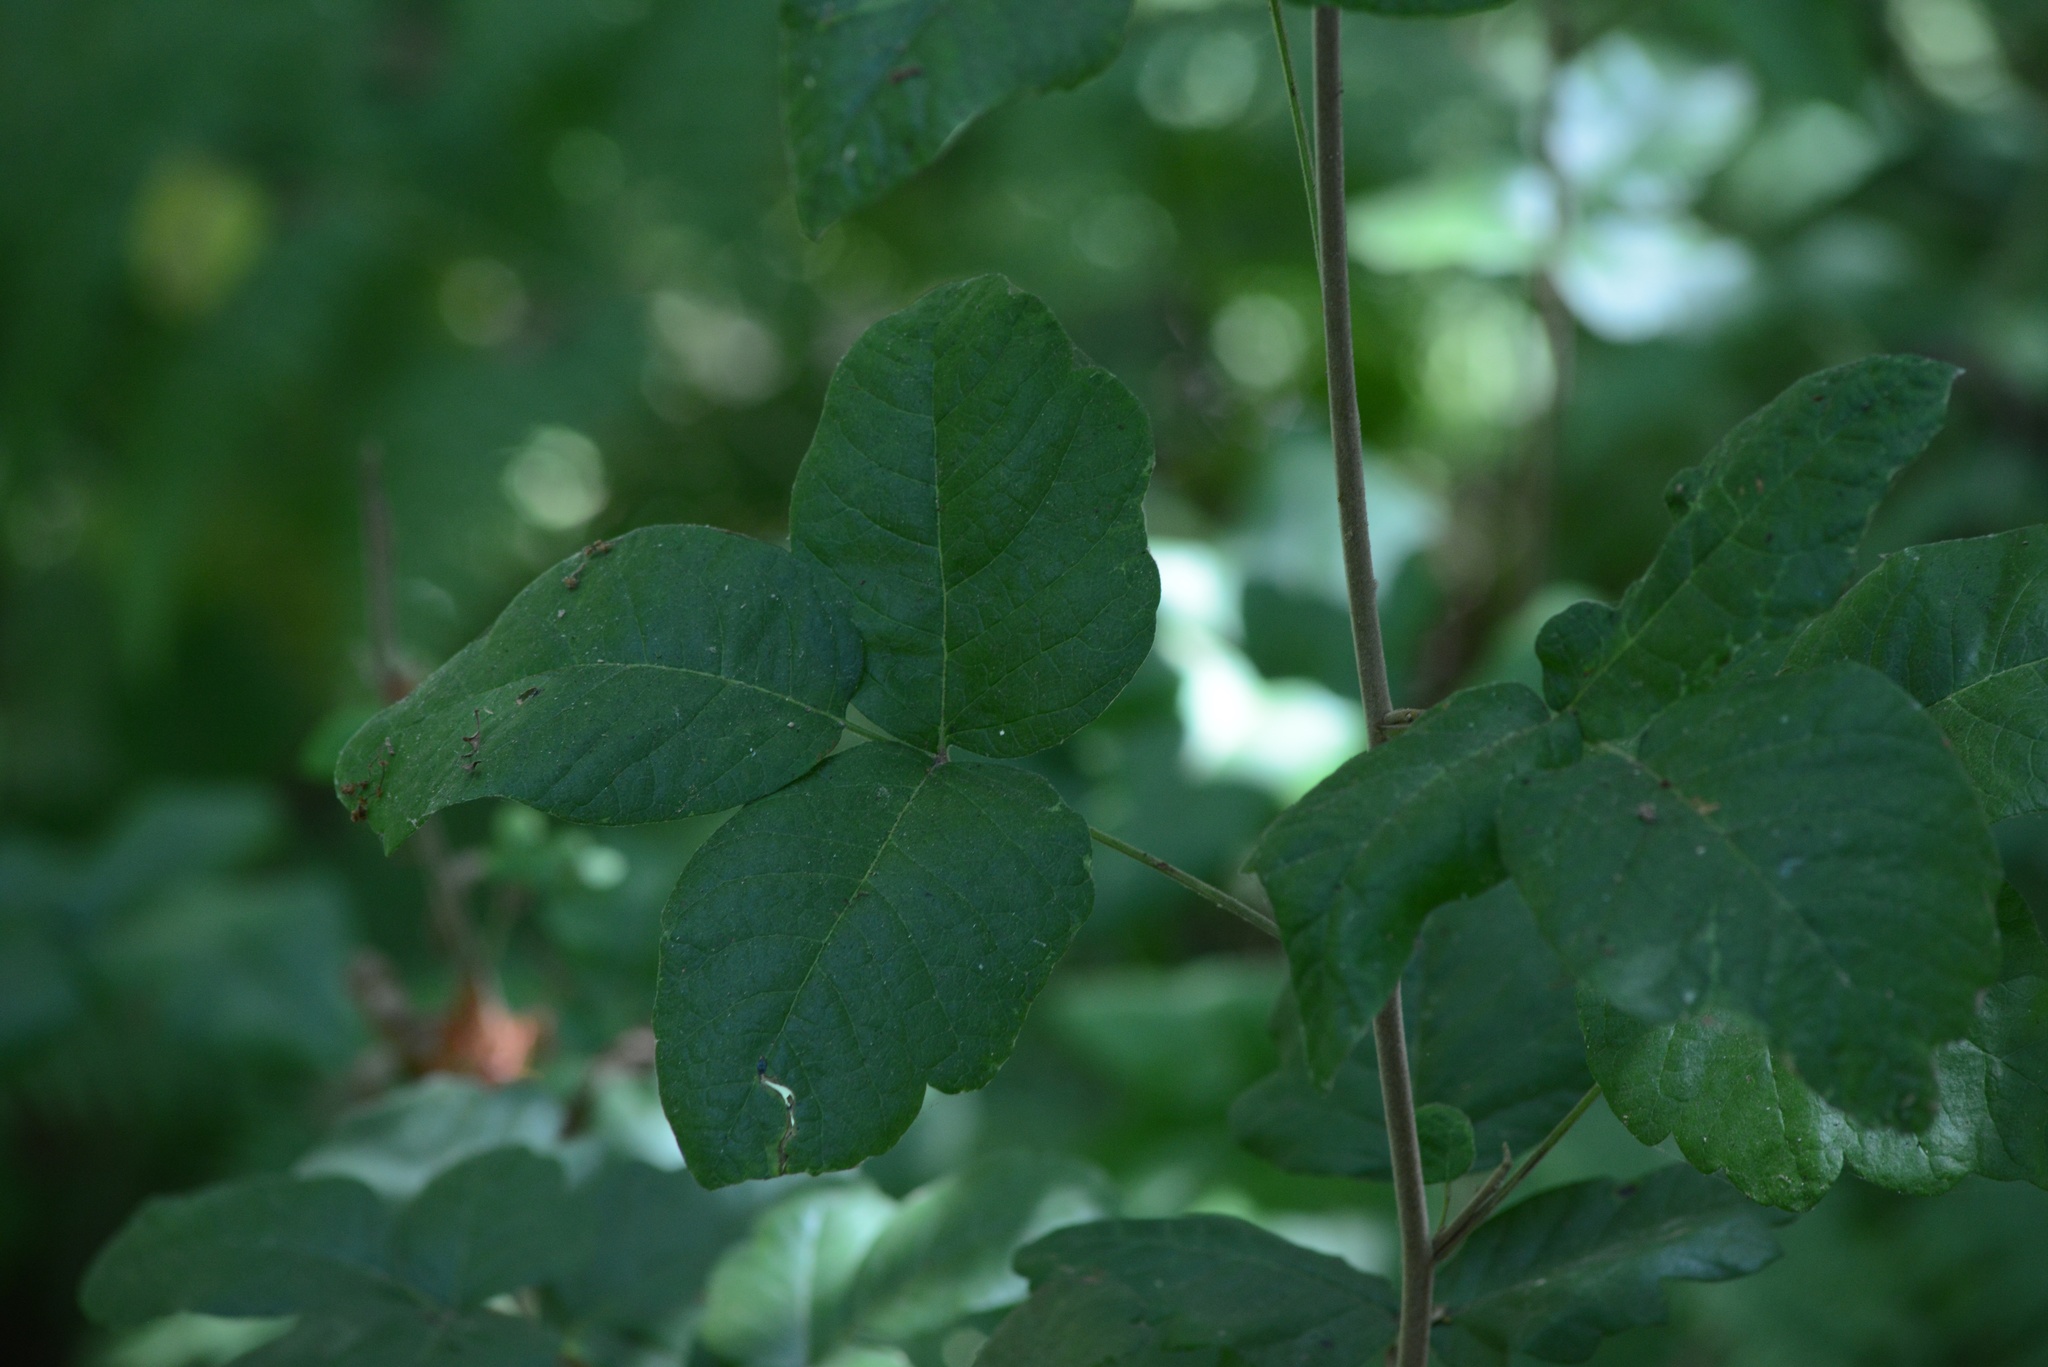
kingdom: Plantae
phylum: Tracheophyta
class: Magnoliopsida
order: Sapindales
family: Anacardiaceae
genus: Toxicodendron
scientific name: Toxicodendron diversilobum
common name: Pacific poison-oak
